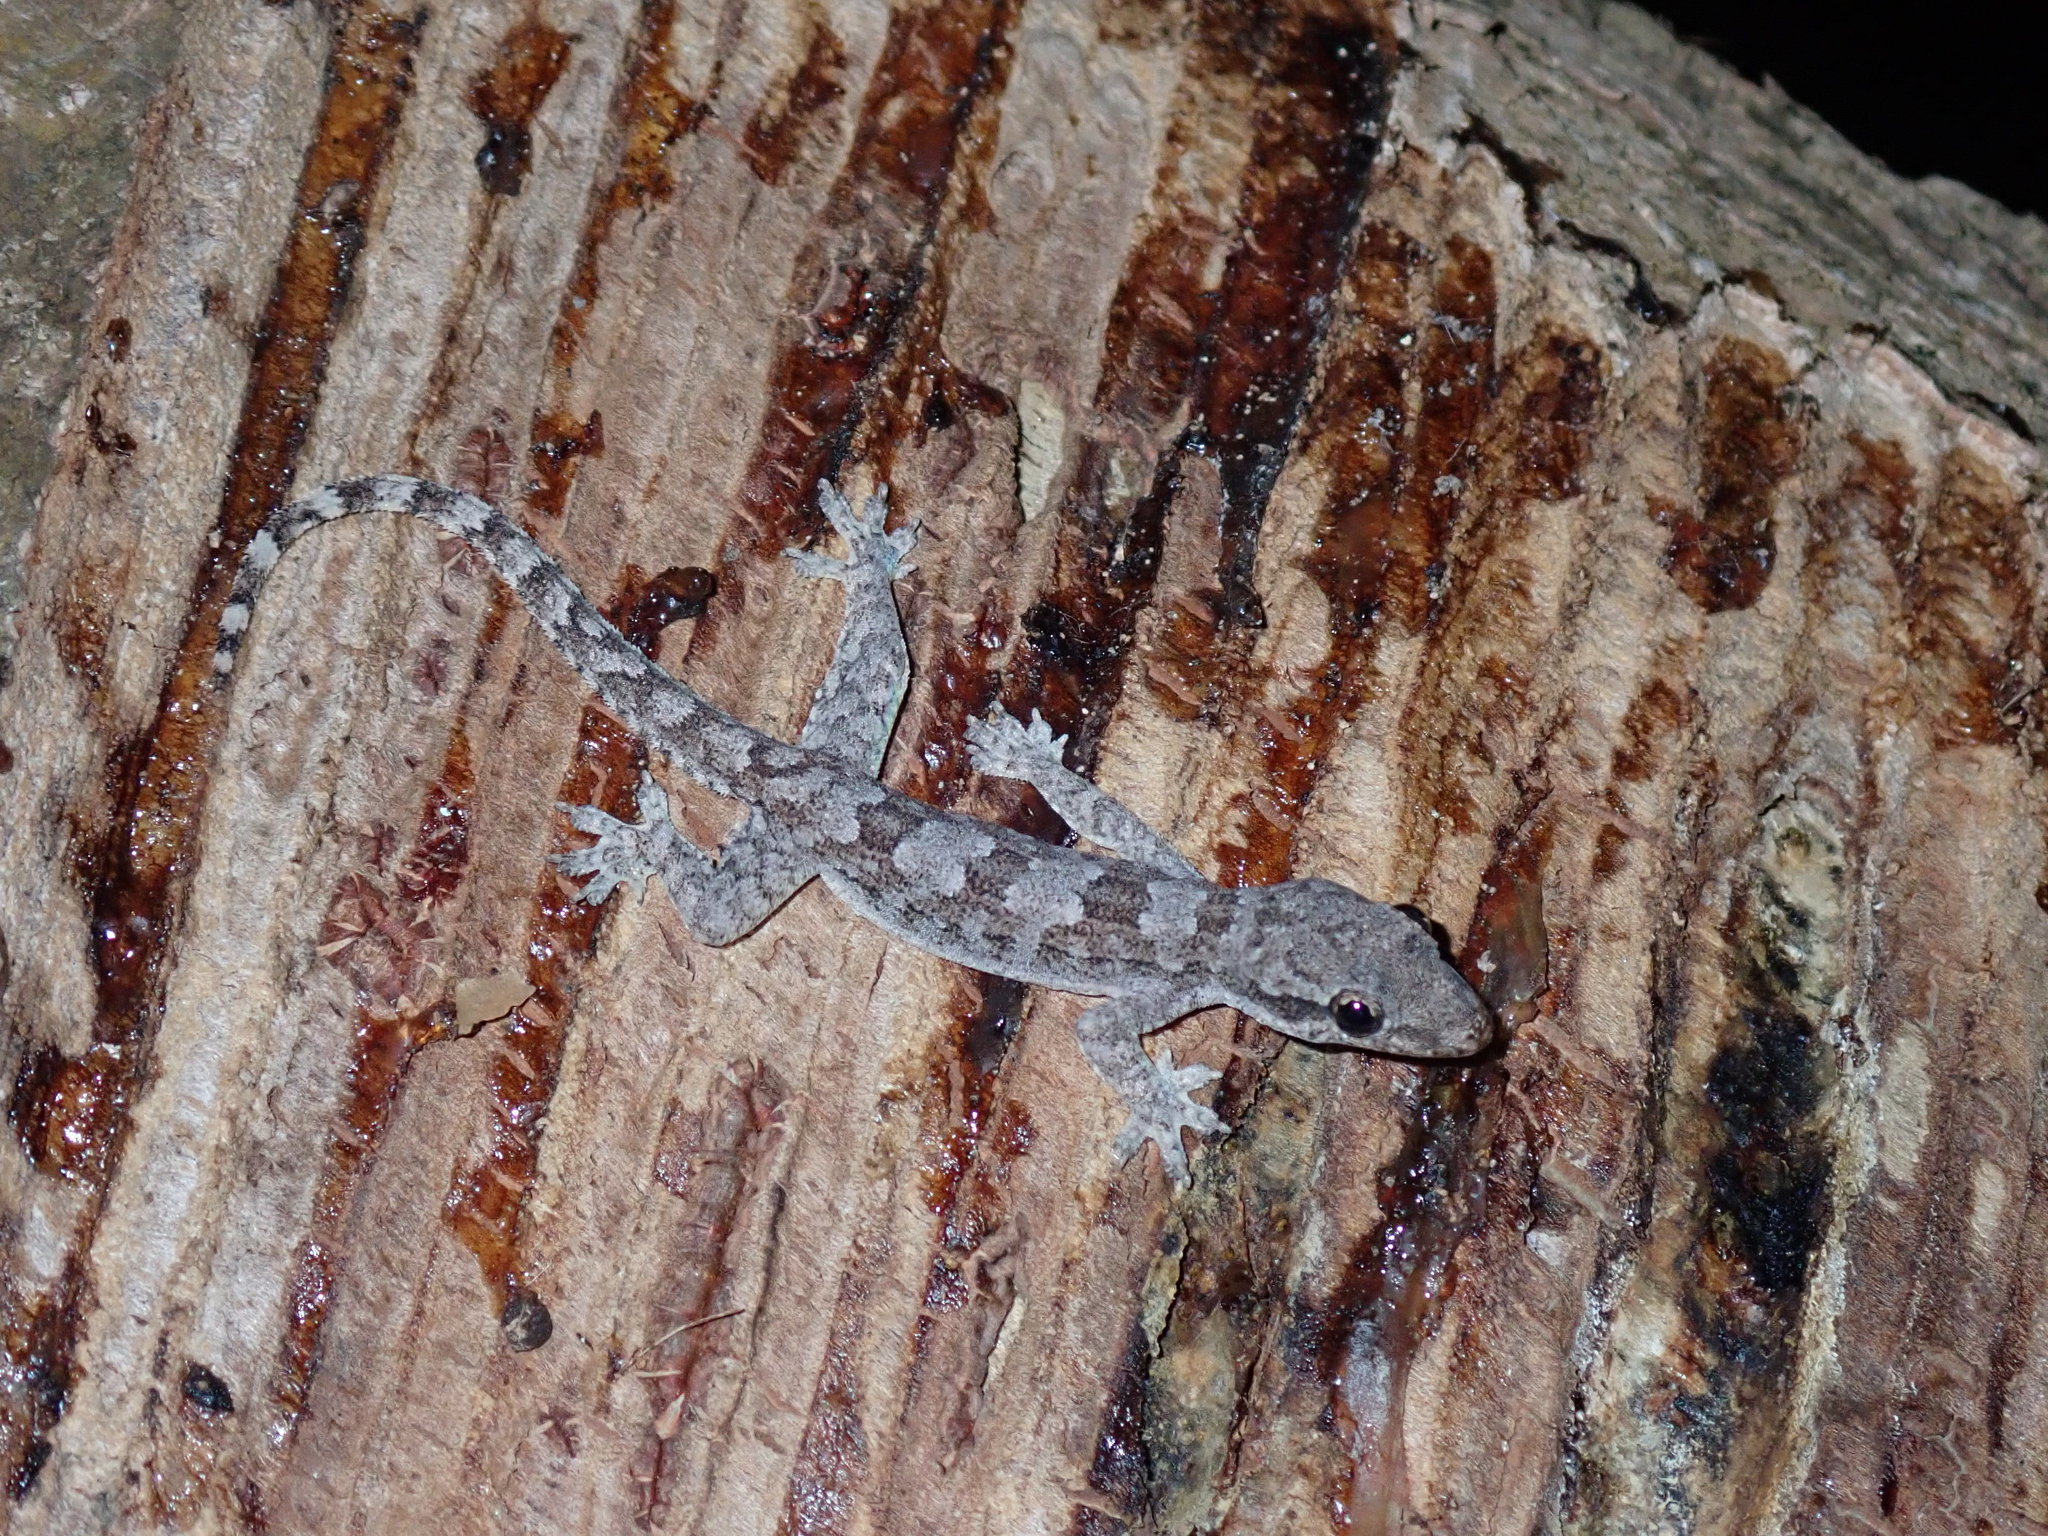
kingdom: Animalia
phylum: Chordata
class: Squamata
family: Gekkonidae
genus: Hemidactylus
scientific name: Hemidactylus platyurus
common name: Flat-tailed house gecko
